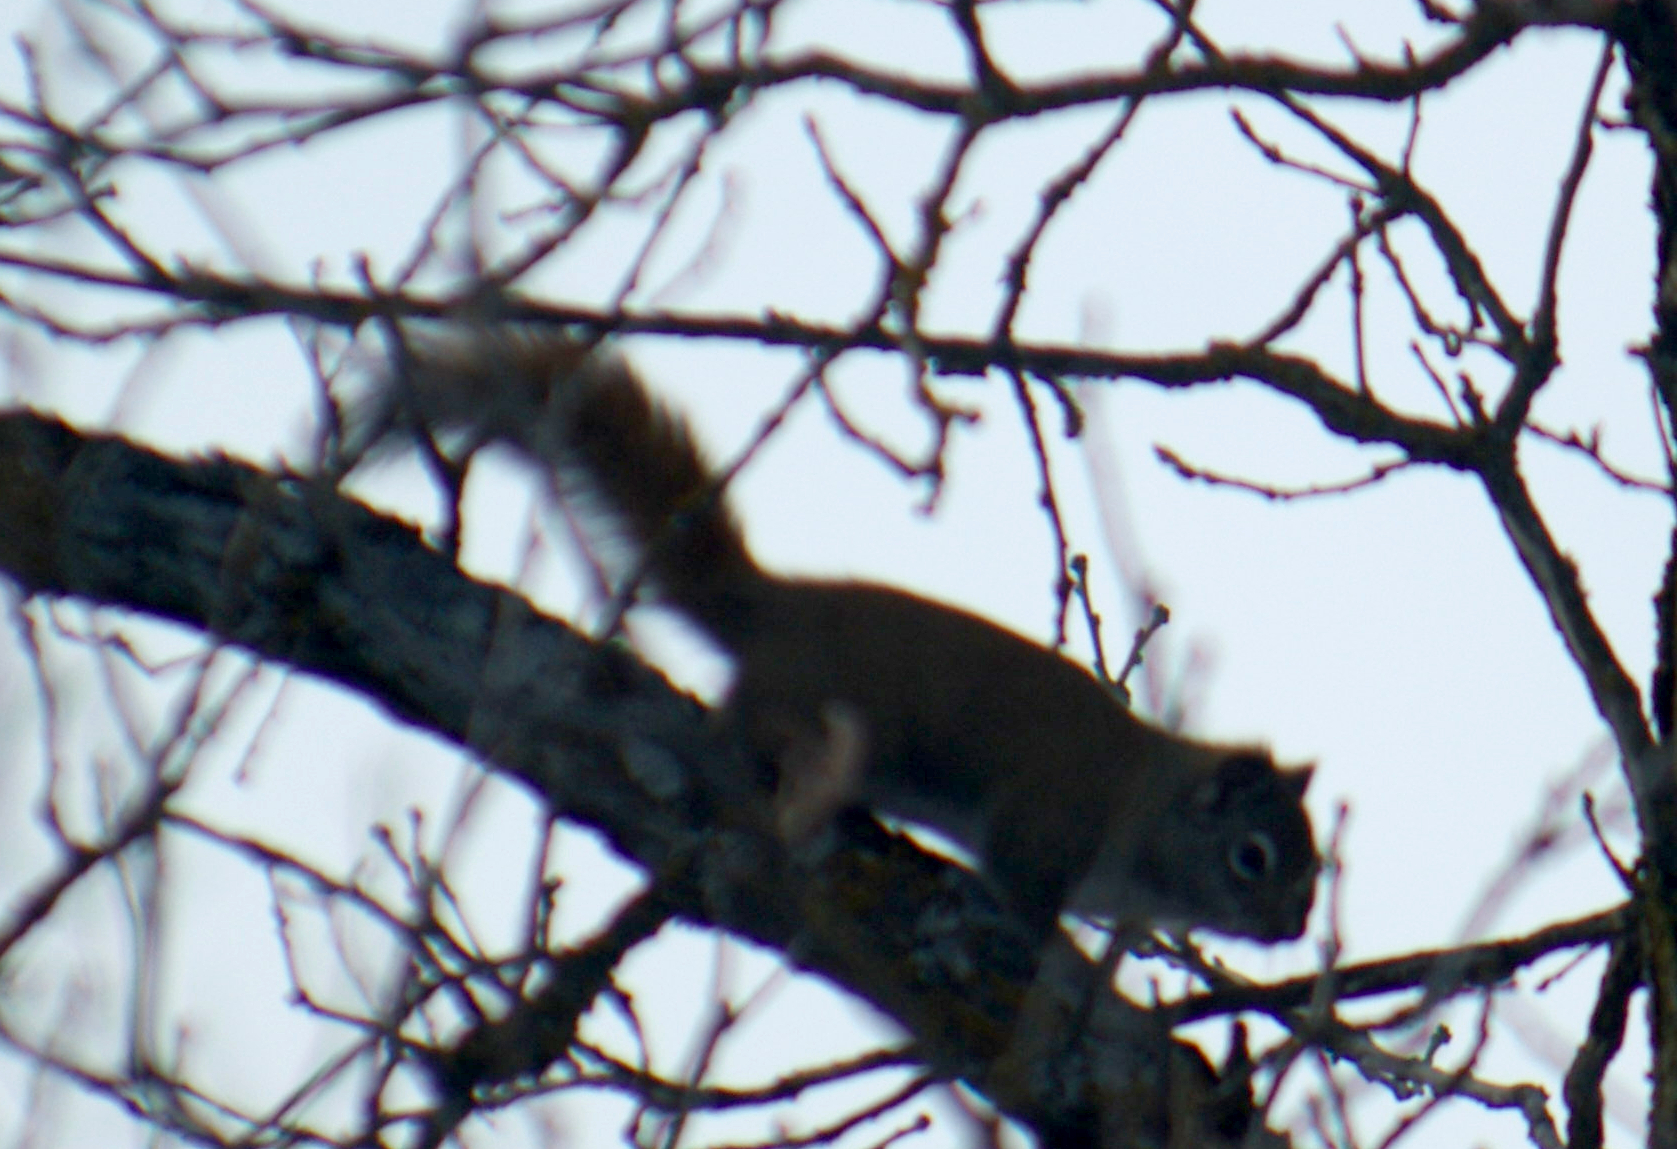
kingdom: Animalia
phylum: Chordata
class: Mammalia
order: Rodentia
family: Sciuridae
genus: Tamiasciurus
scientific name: Tamiasciurus hudsonicus
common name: Red squirrel
